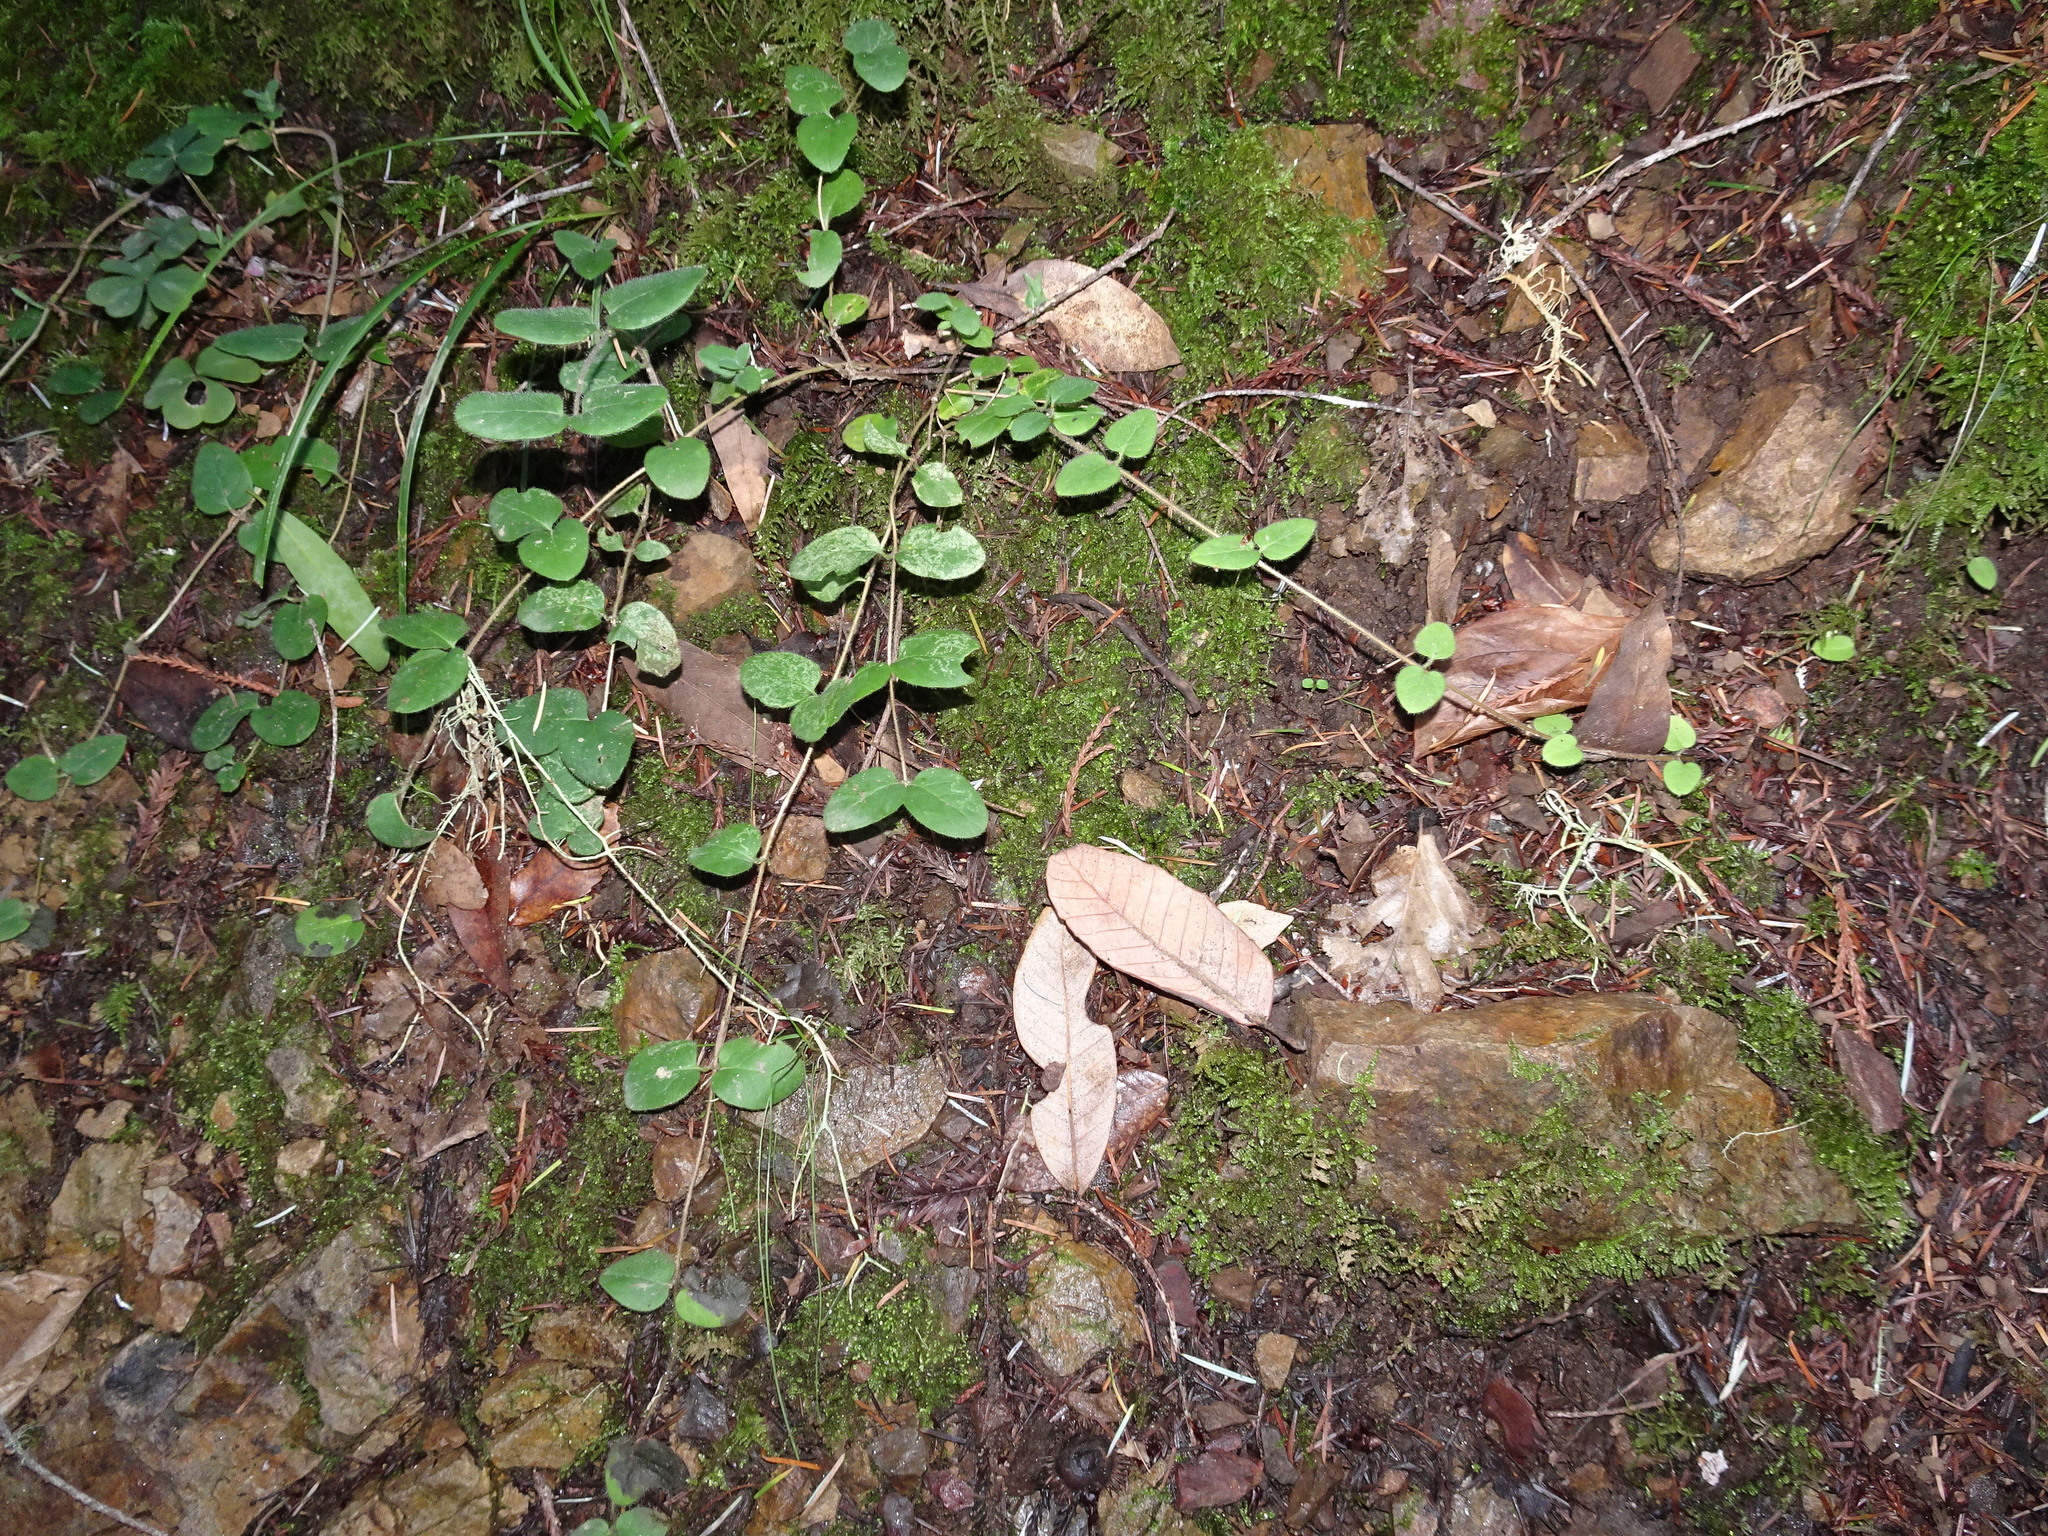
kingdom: Plantae
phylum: Tracheophyta
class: Magnoliopsida
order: Dipsacales
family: Caprifoliaceae
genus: Lonicera
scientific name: Lonicera hispidula
